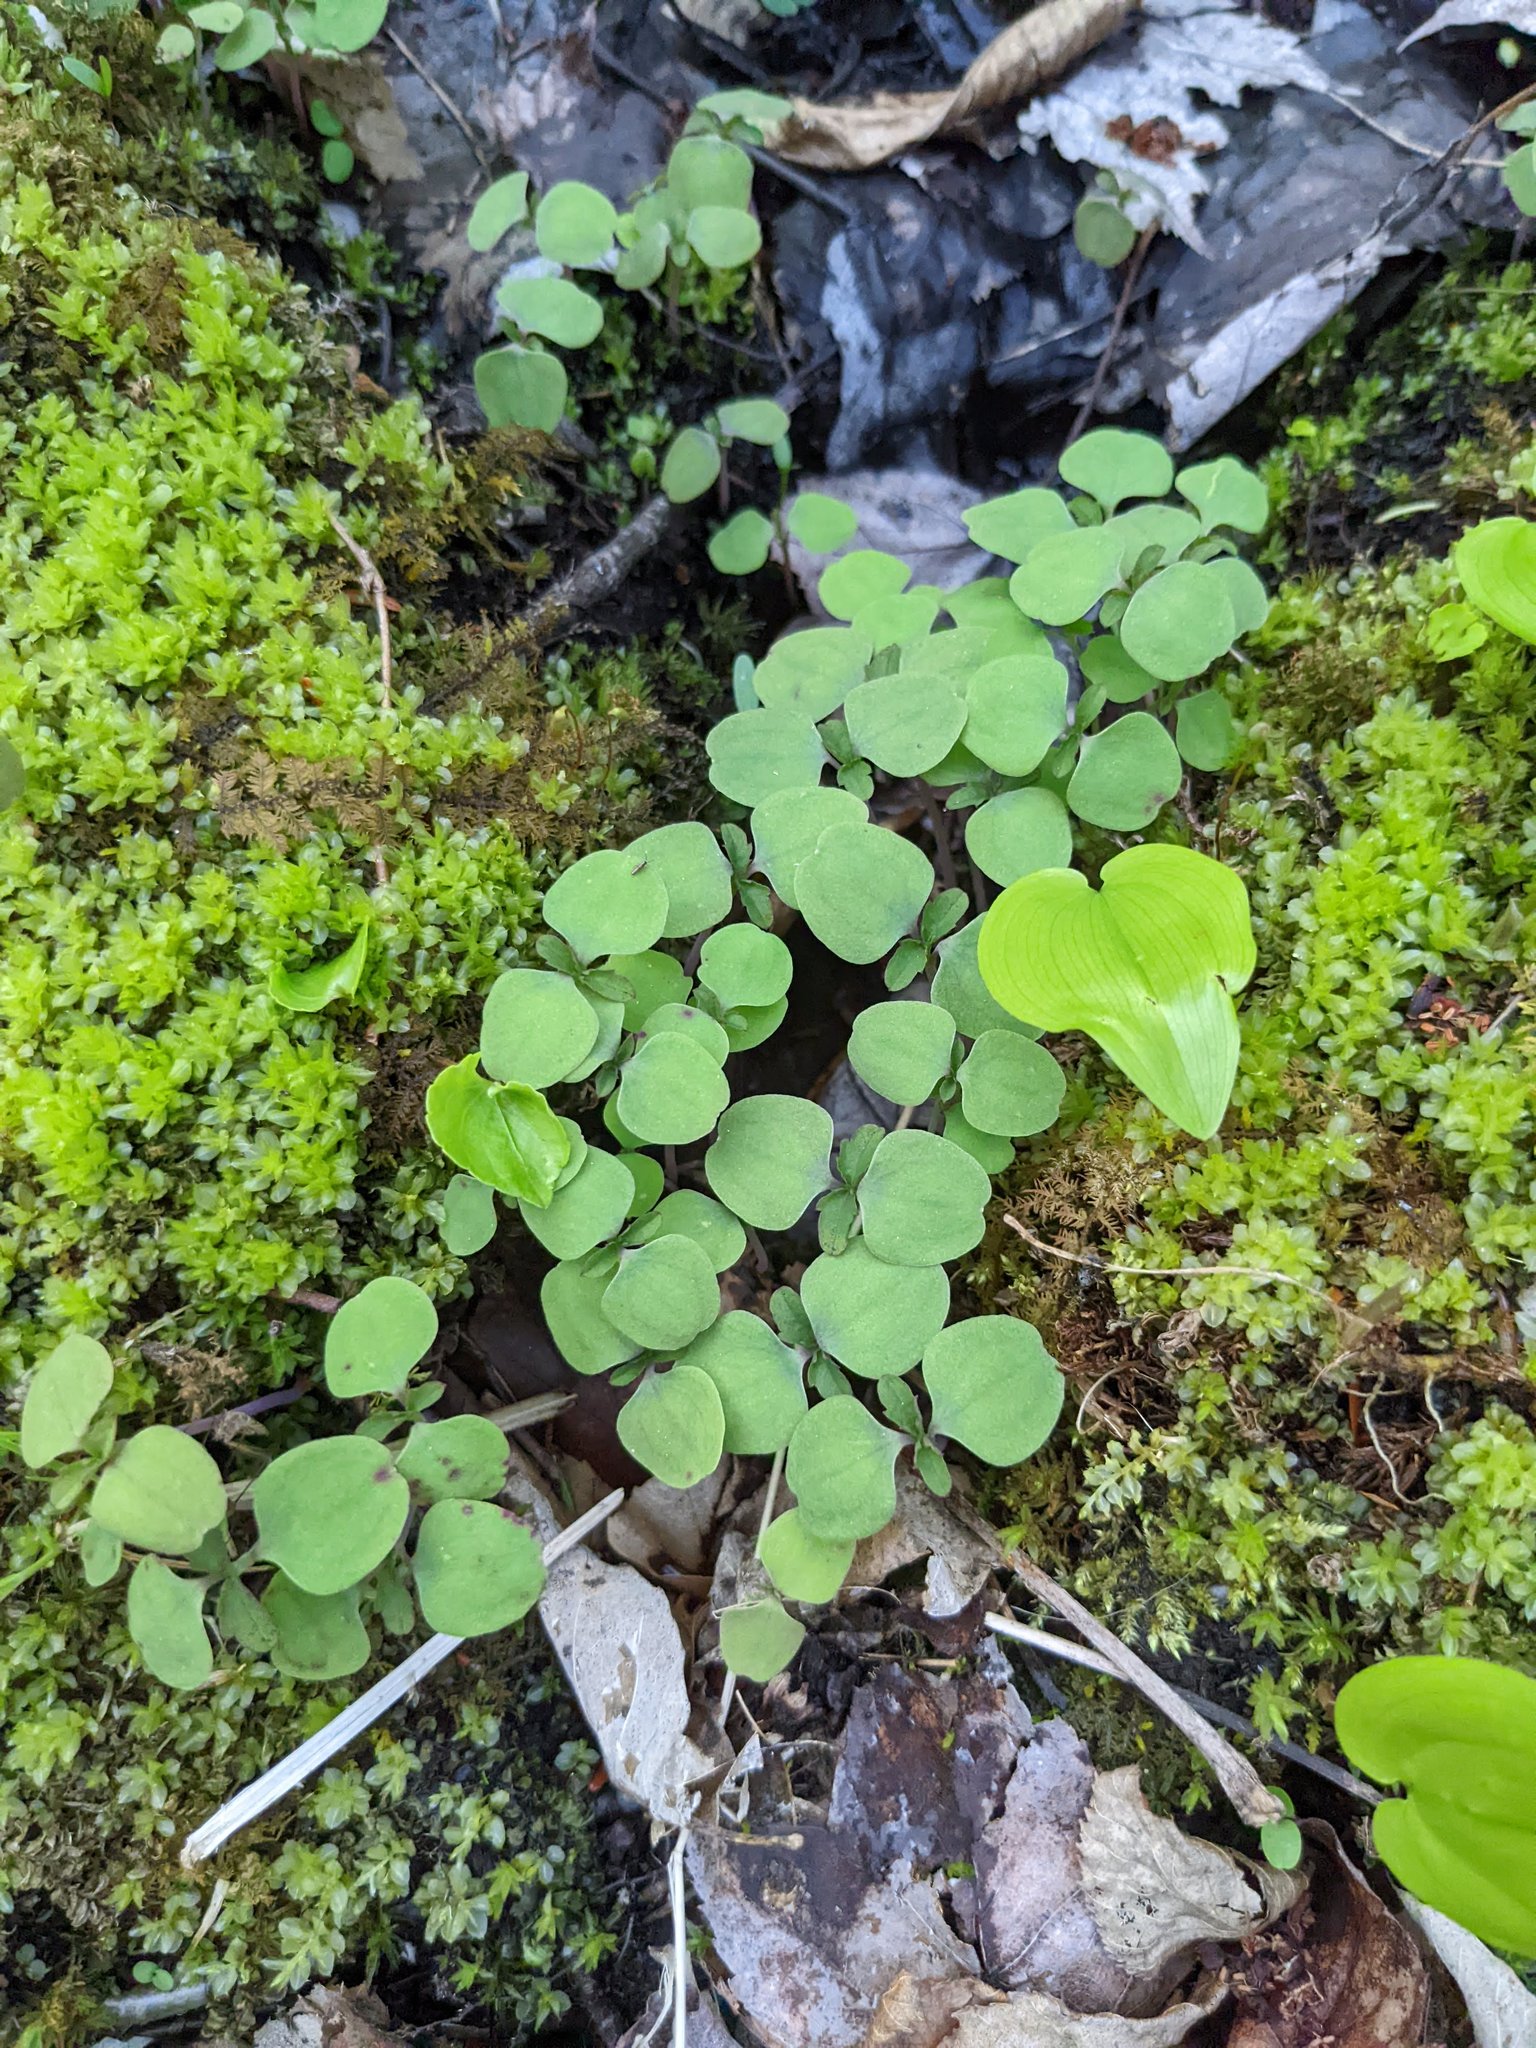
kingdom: Plantae
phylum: Tracheophyta
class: Liliopsida
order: Asparagales
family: Asparagaceae
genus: Maianthemum
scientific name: Maianthemum canadense
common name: False lily-of-the-valley
